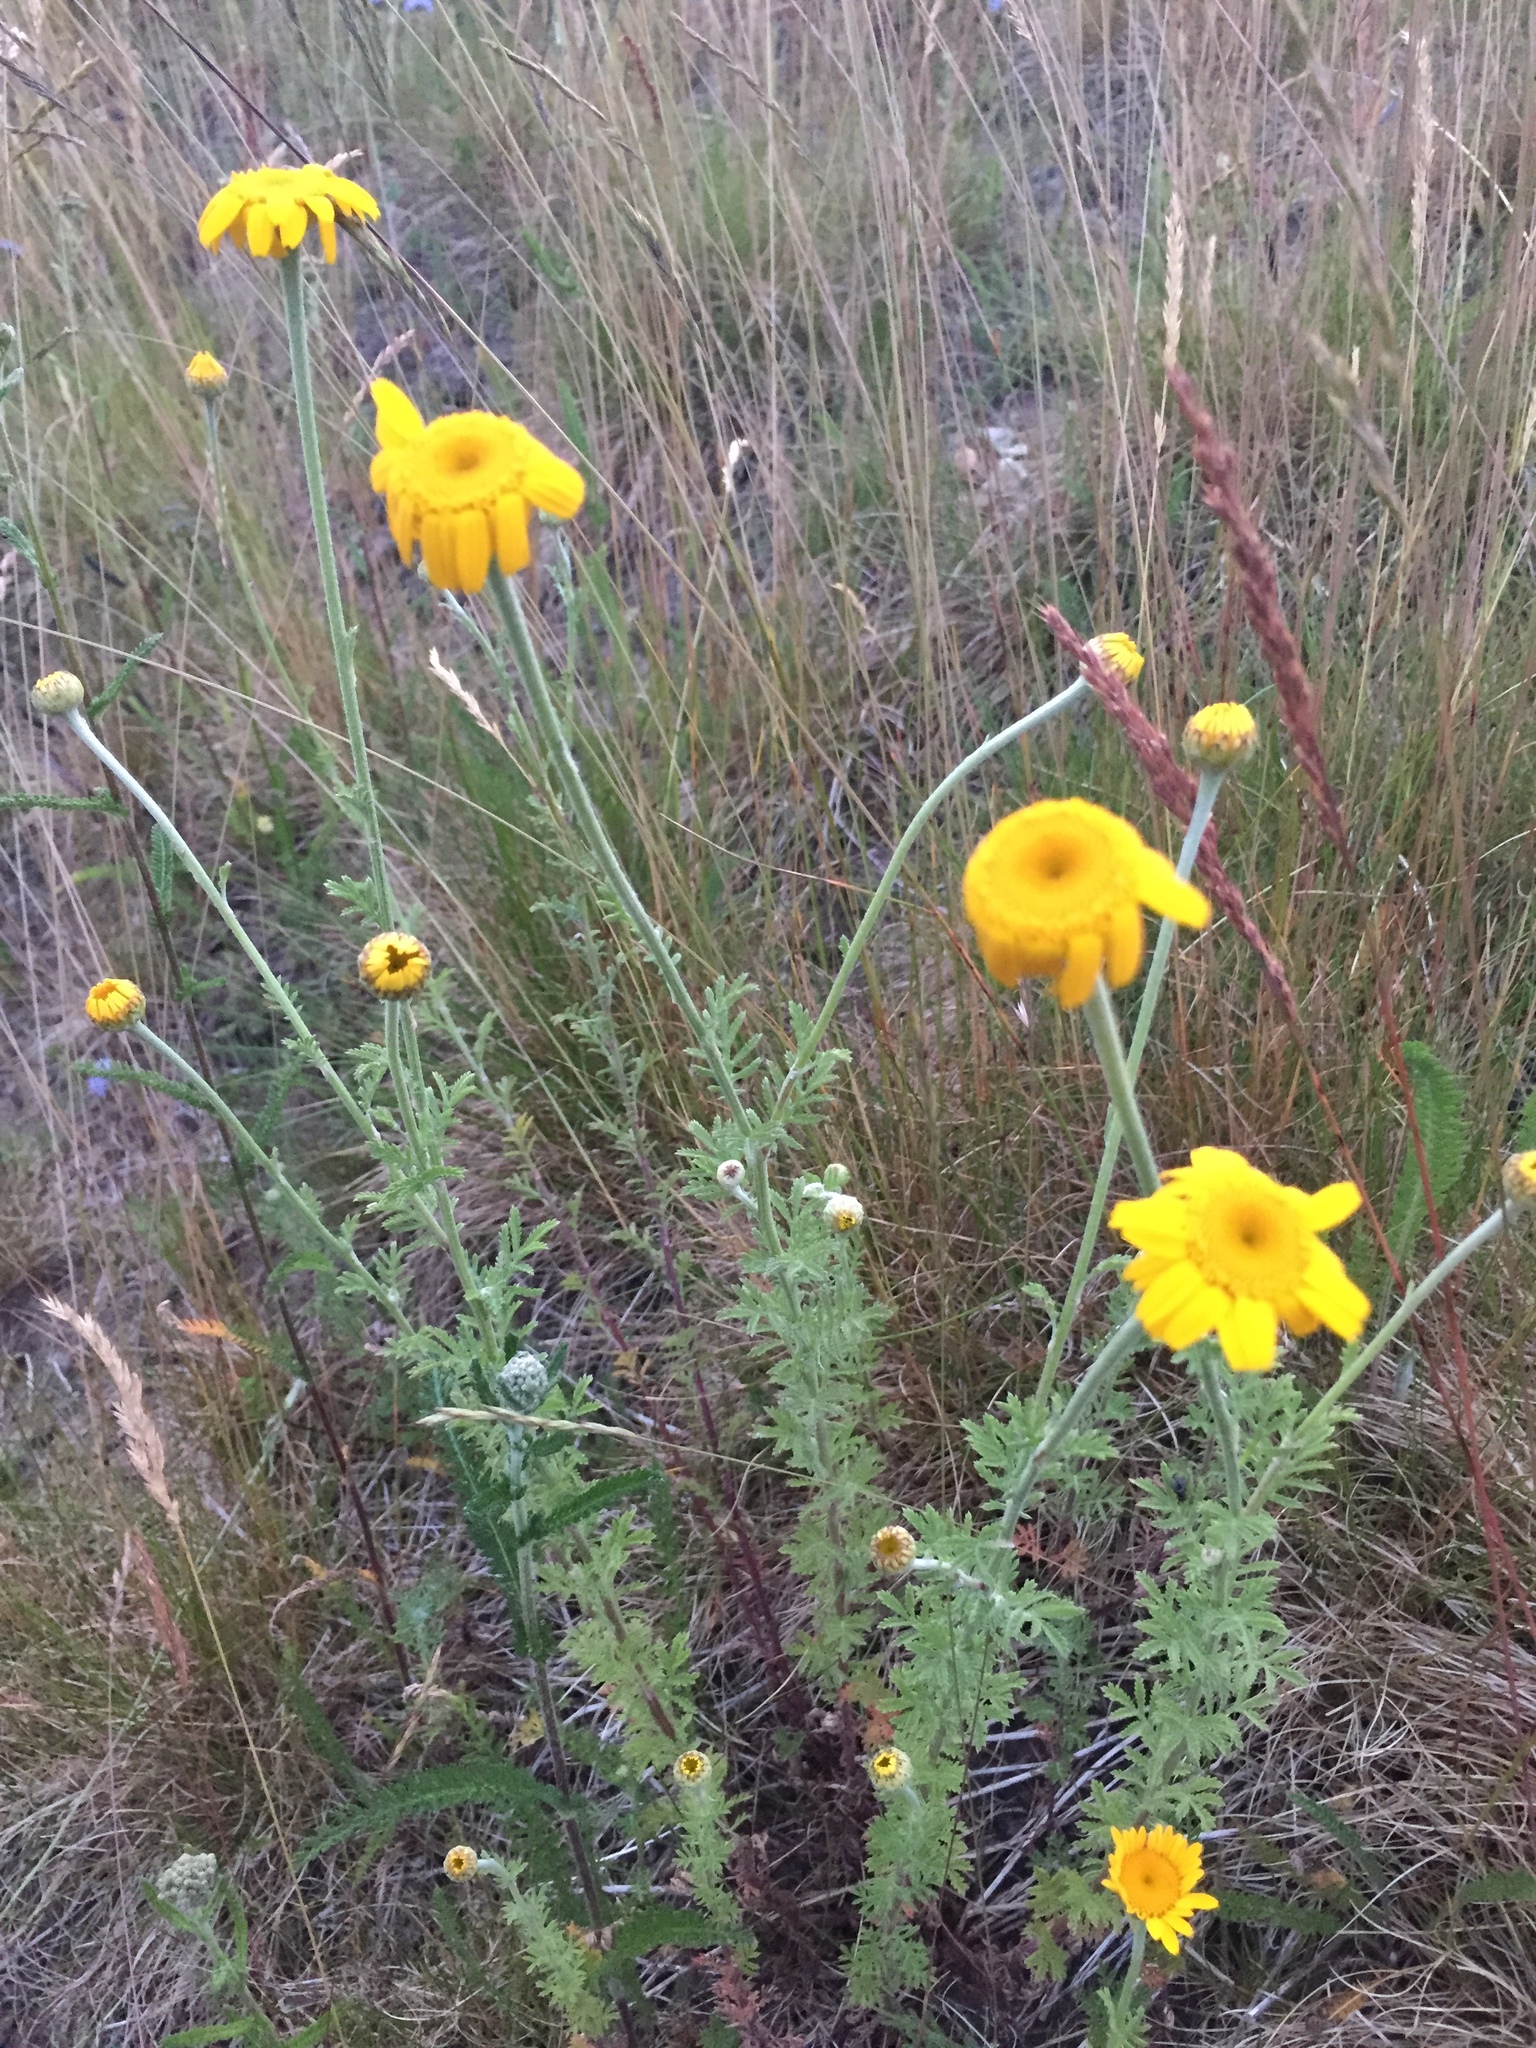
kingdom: Plantae
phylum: Tracheophyta
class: Magnoliopsida
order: Asterales
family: Asteraceae
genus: Cota
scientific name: Cota tinctoria
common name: Golden chamomile
